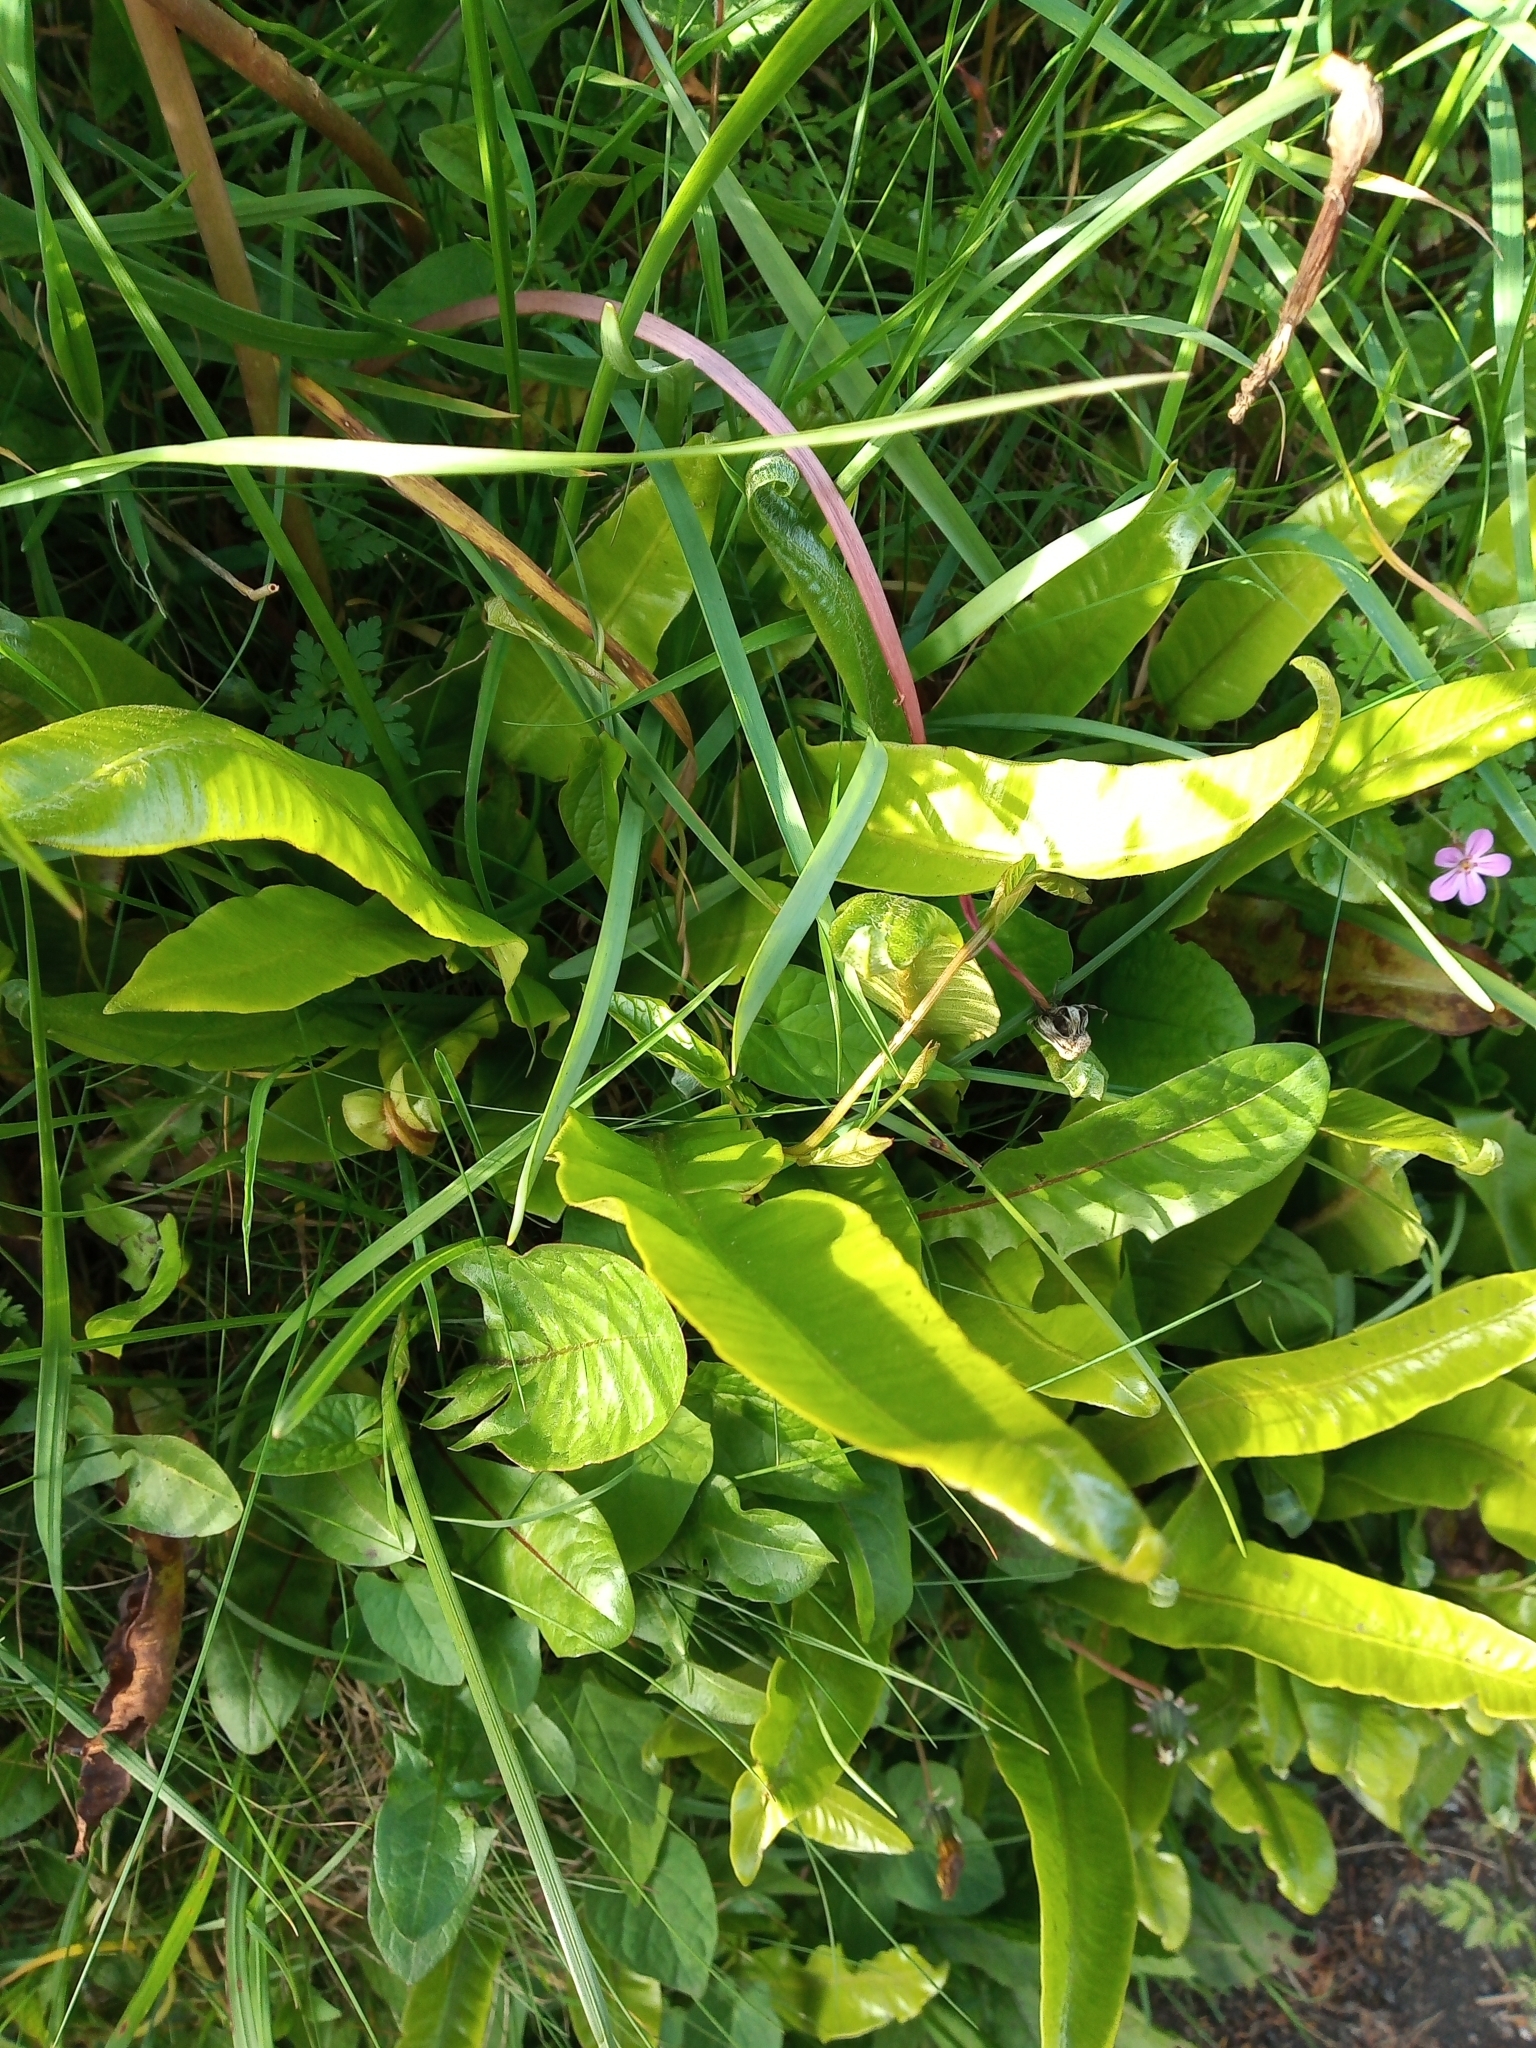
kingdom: Plantae
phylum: Tracheophyta
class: Polypodiopsida
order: Polypodiales
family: Aspleniaceae
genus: Asplenium
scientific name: Asplenium scolopendrium
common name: Hart's-tongue fern
